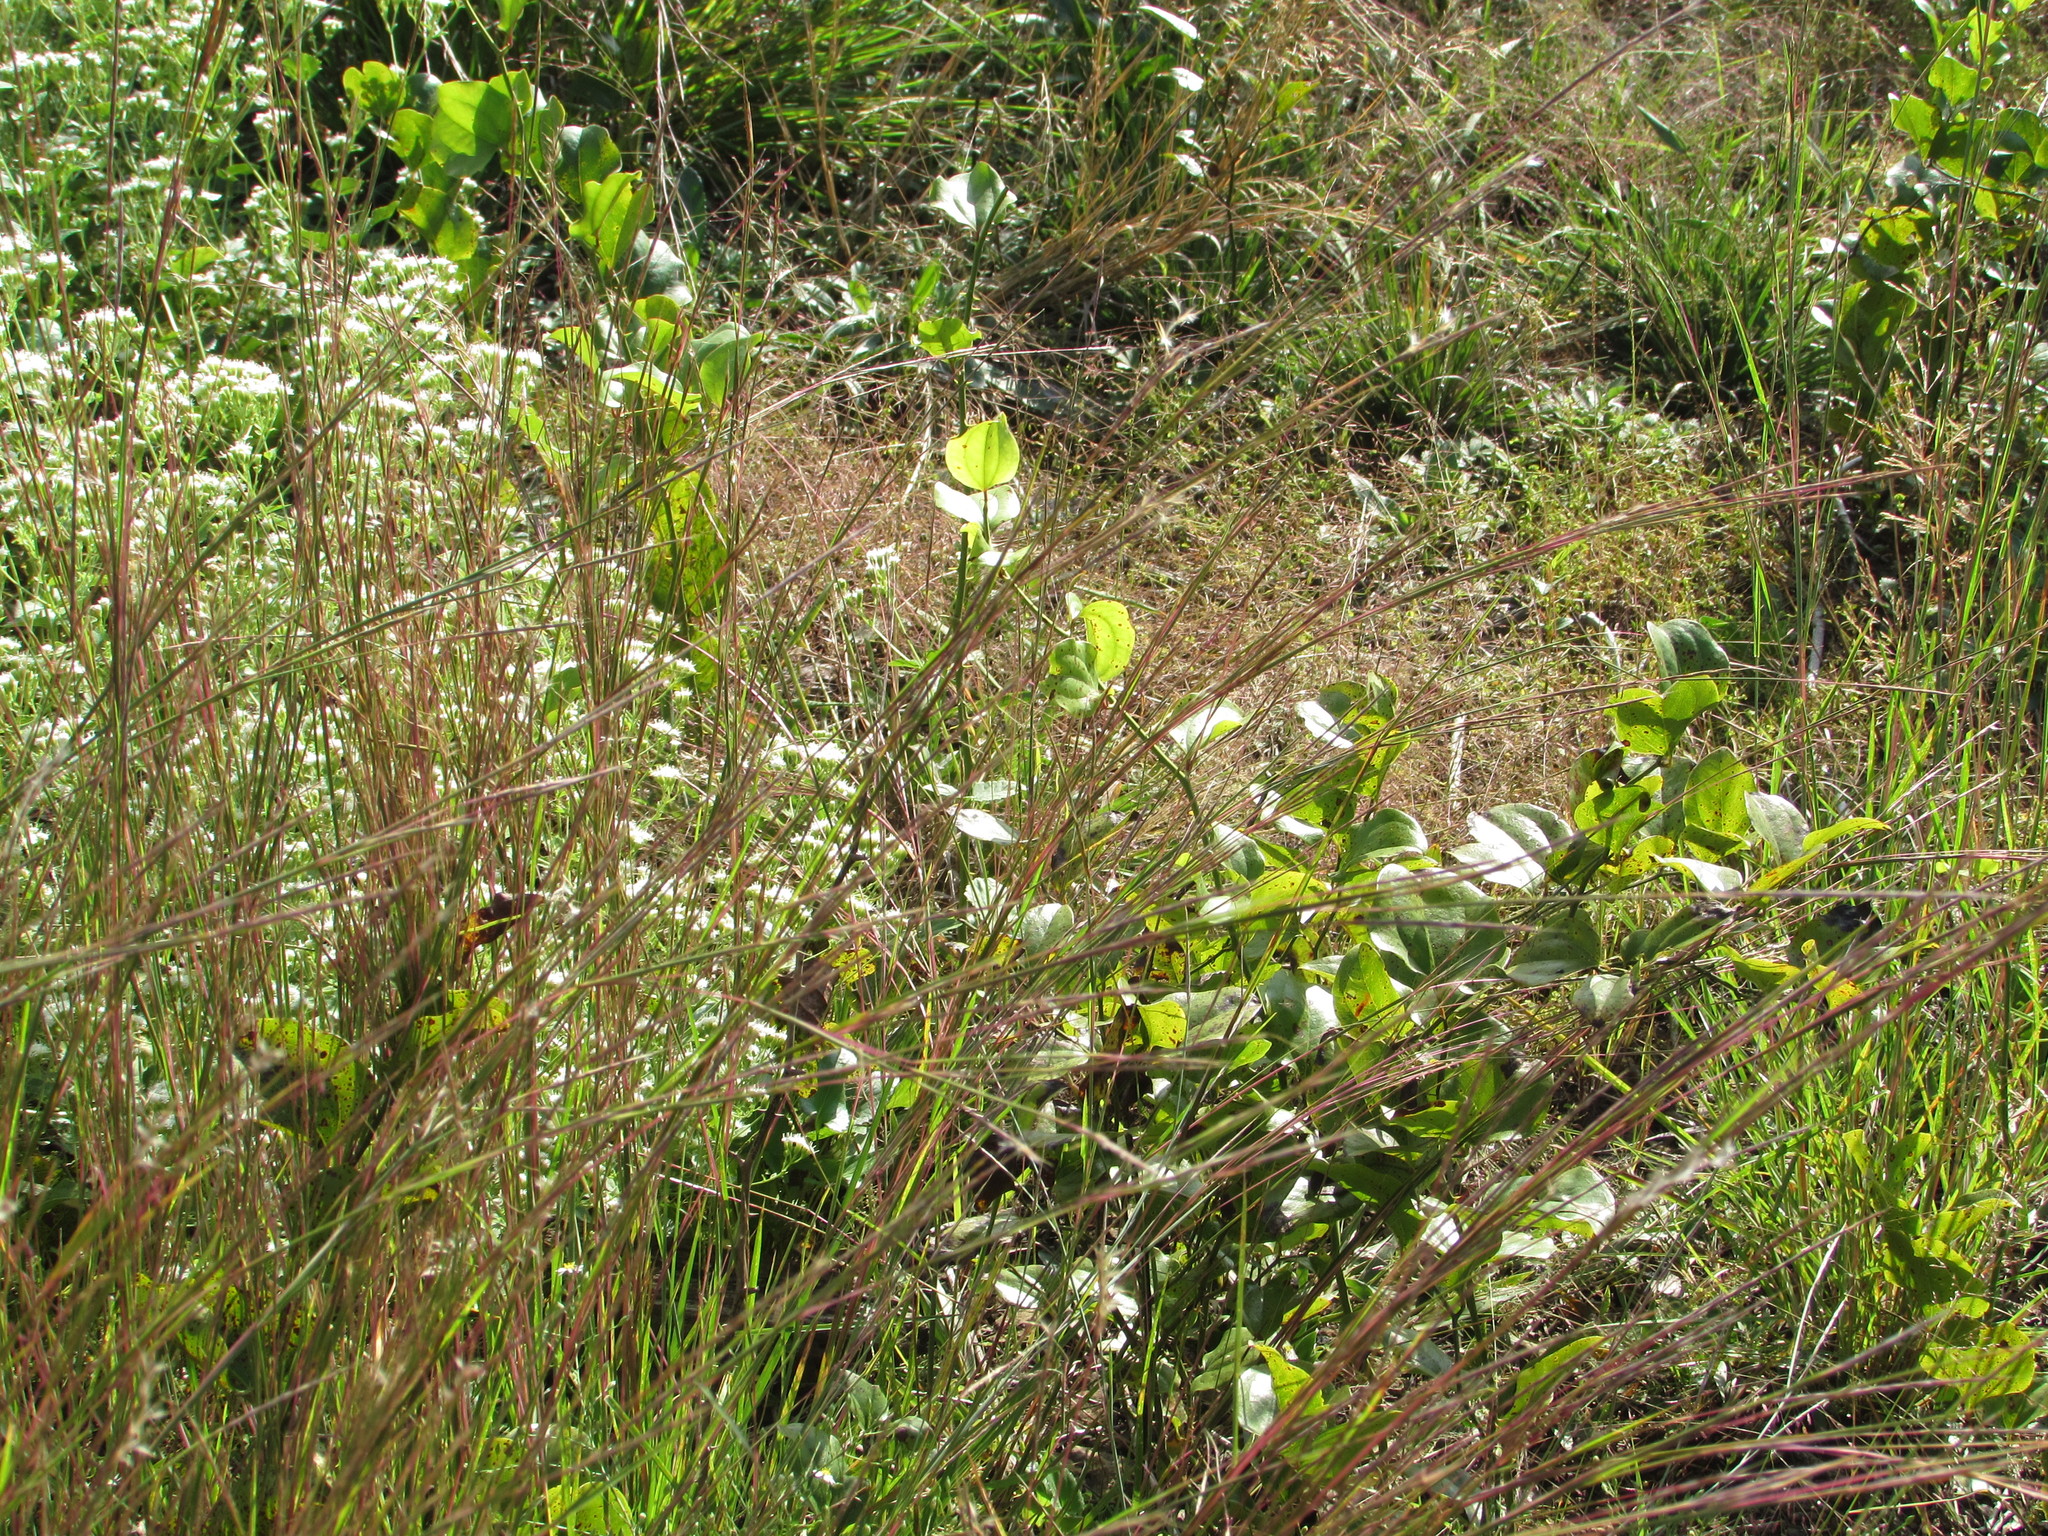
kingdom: Plantae
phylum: Tracheophyta
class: Liliopsida
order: Poales
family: Poaceae
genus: Andropogon
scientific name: Andropogon gerardi
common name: Big bluestem
